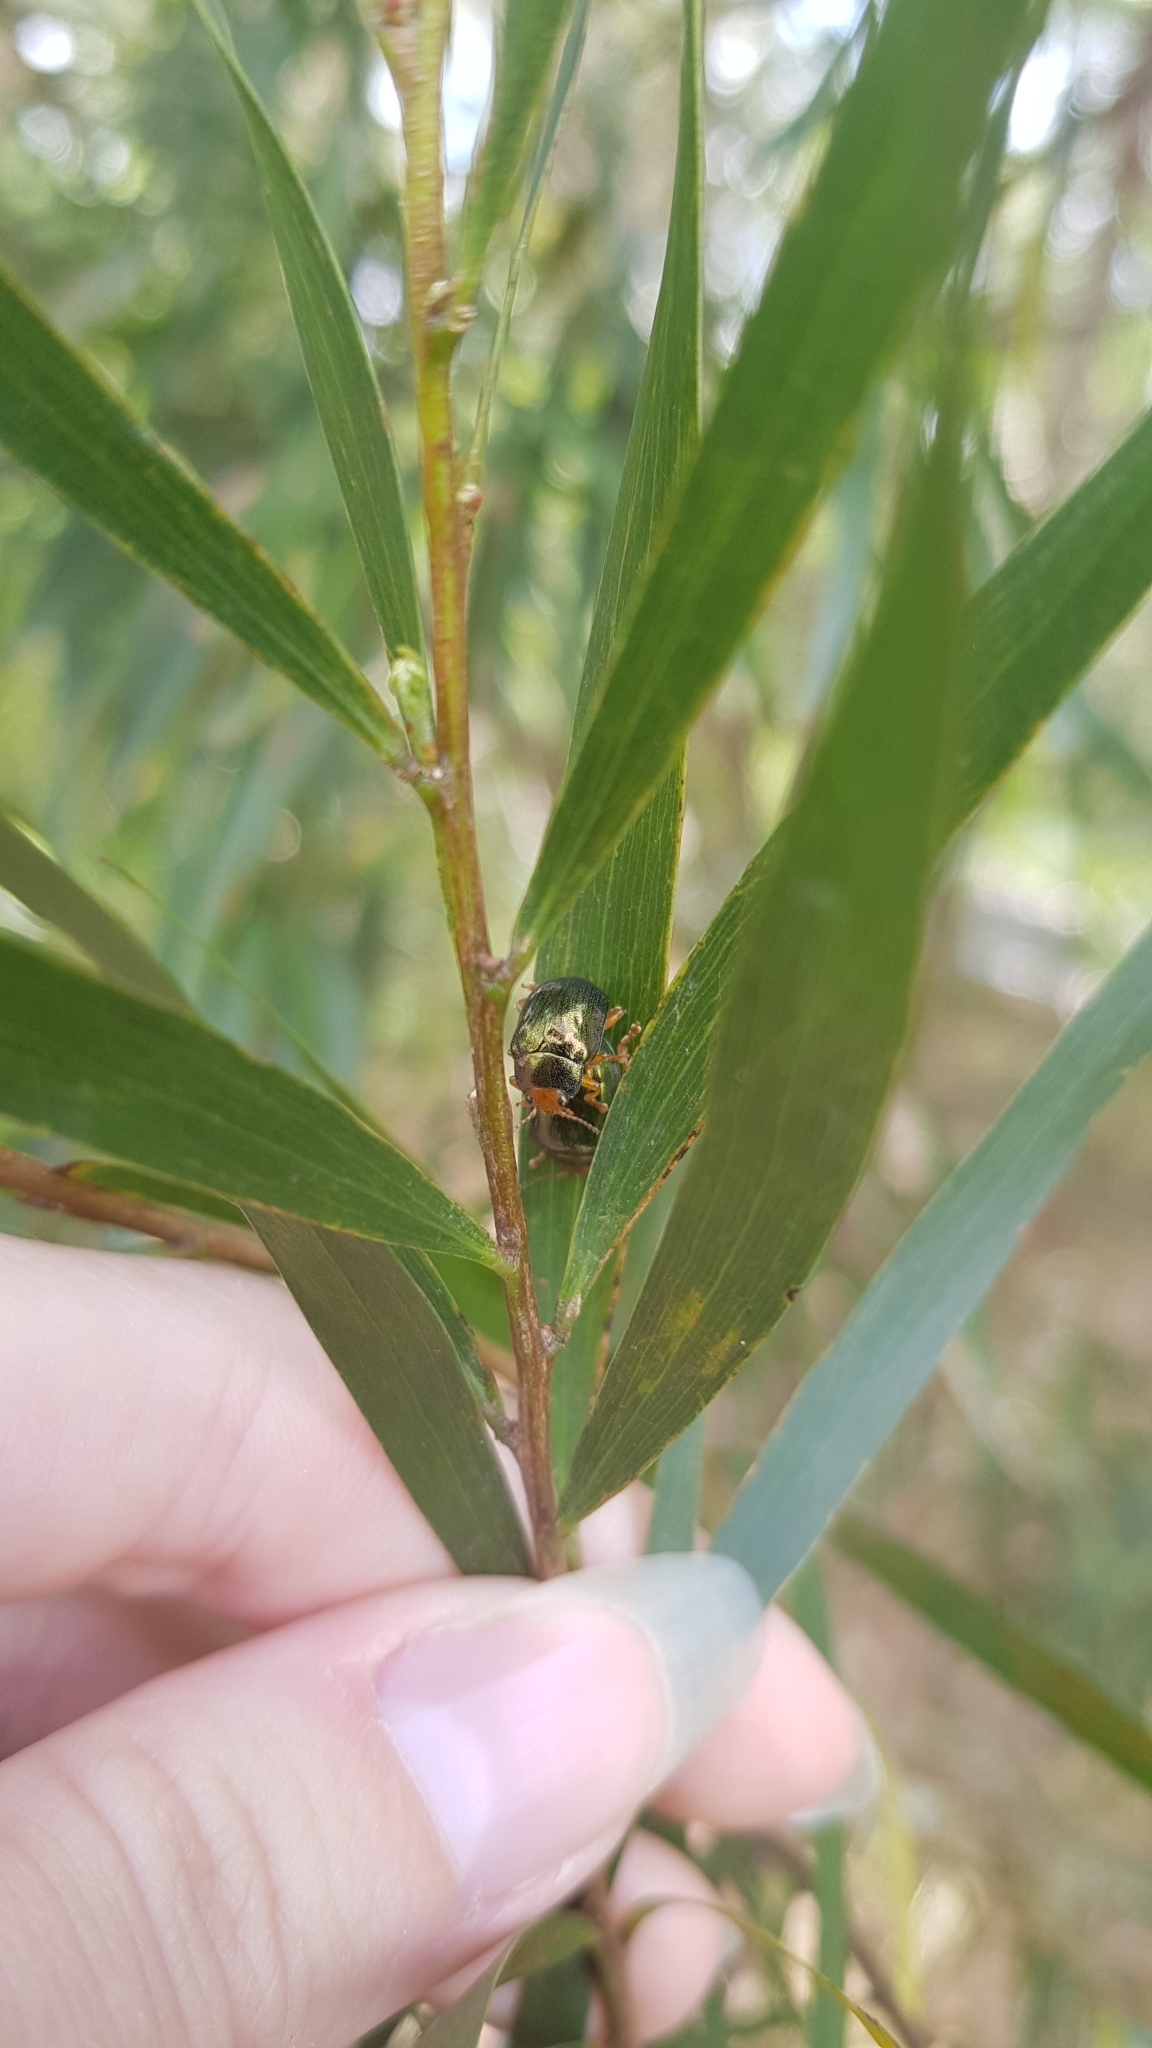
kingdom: Animalia
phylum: Arthropoda
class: Insecta
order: Coleoptera
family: Chrysomelidae
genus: Calomela
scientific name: Calomela
